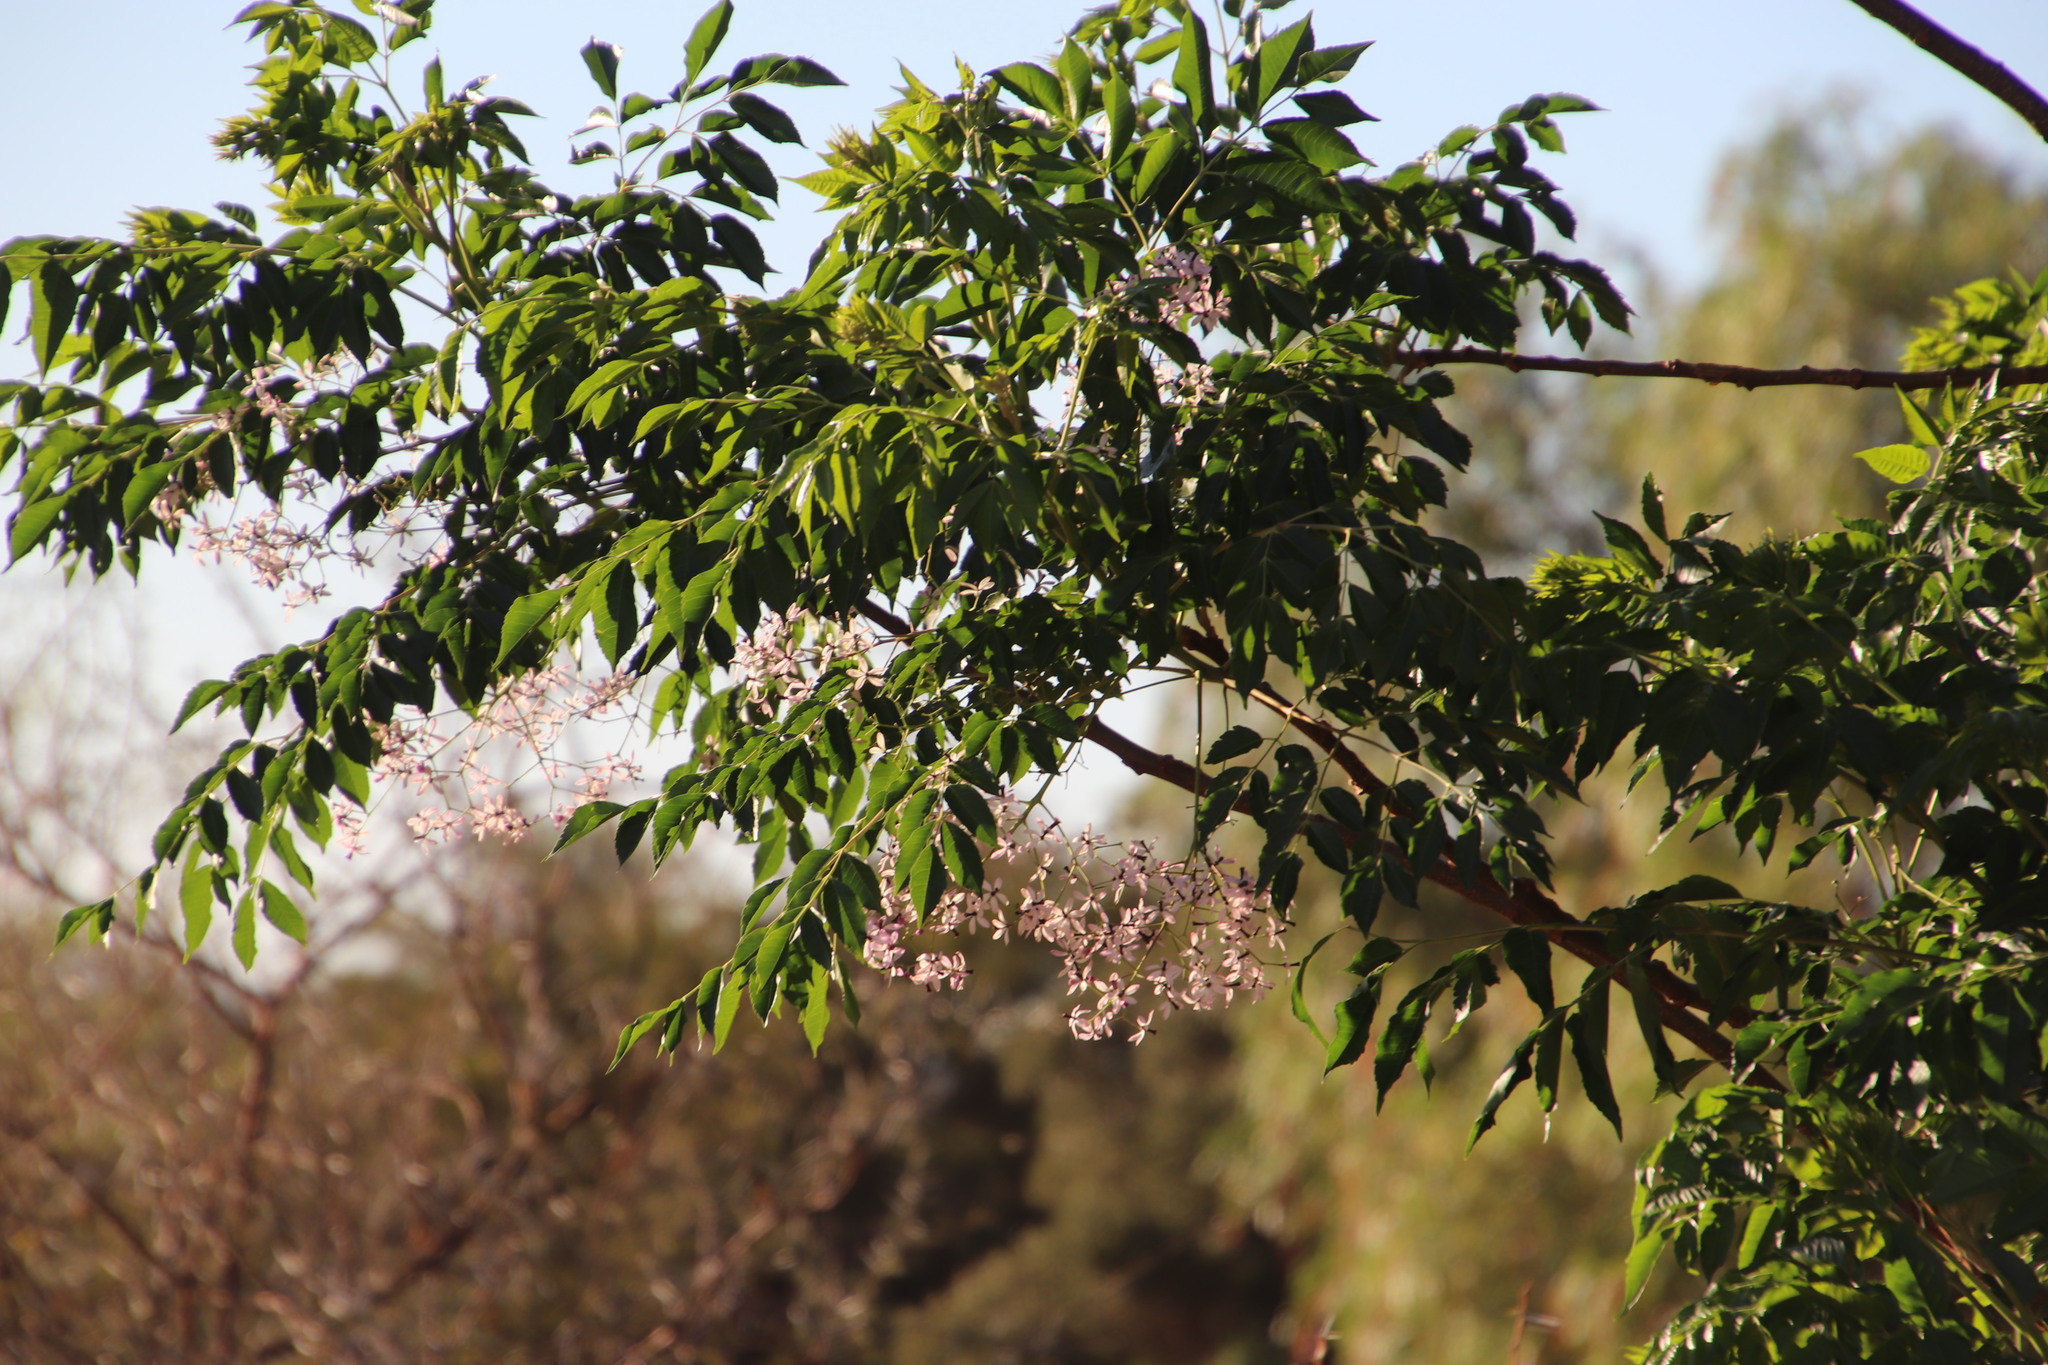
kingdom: Plantae
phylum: Tracheophyta
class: Magnoliopsida
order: Sapindales
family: Meliaceae
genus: Melia
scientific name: Melia azedarach
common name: Chinaberrytree
